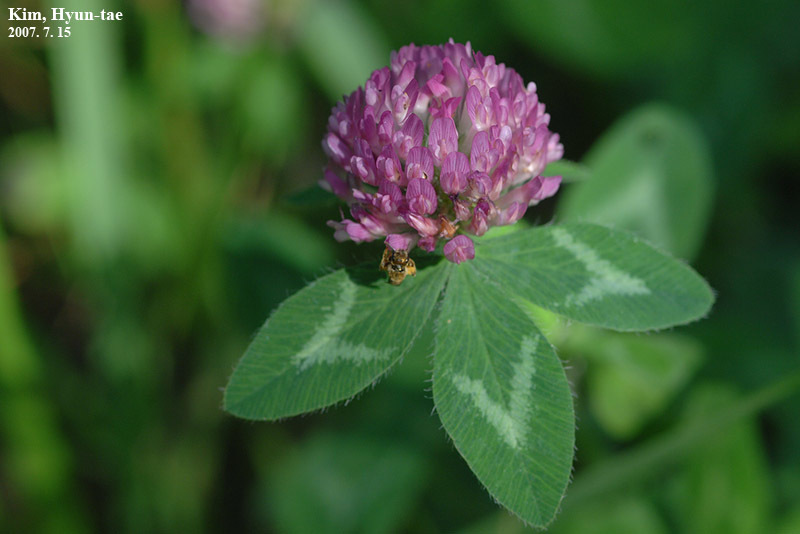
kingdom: Plantae
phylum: Tracheophyta
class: Magnoliopsida
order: Fabales
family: Fabaceae
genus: Trifolium
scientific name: Trifolium pratense
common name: Red clover
